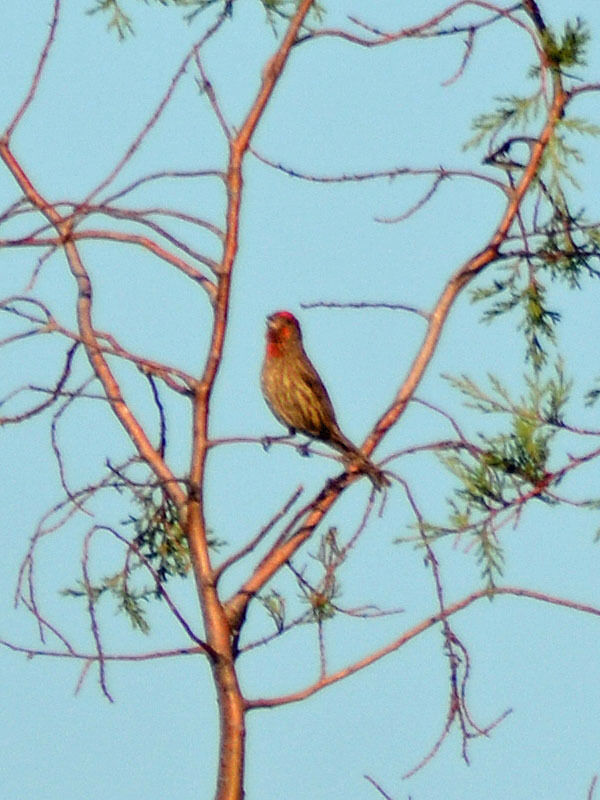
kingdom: Animalia
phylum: Chordata
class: Aves
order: Passeriformes
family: Fringillidae
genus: Haemorhous
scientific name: Haemorhous mexicanus
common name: House finch
